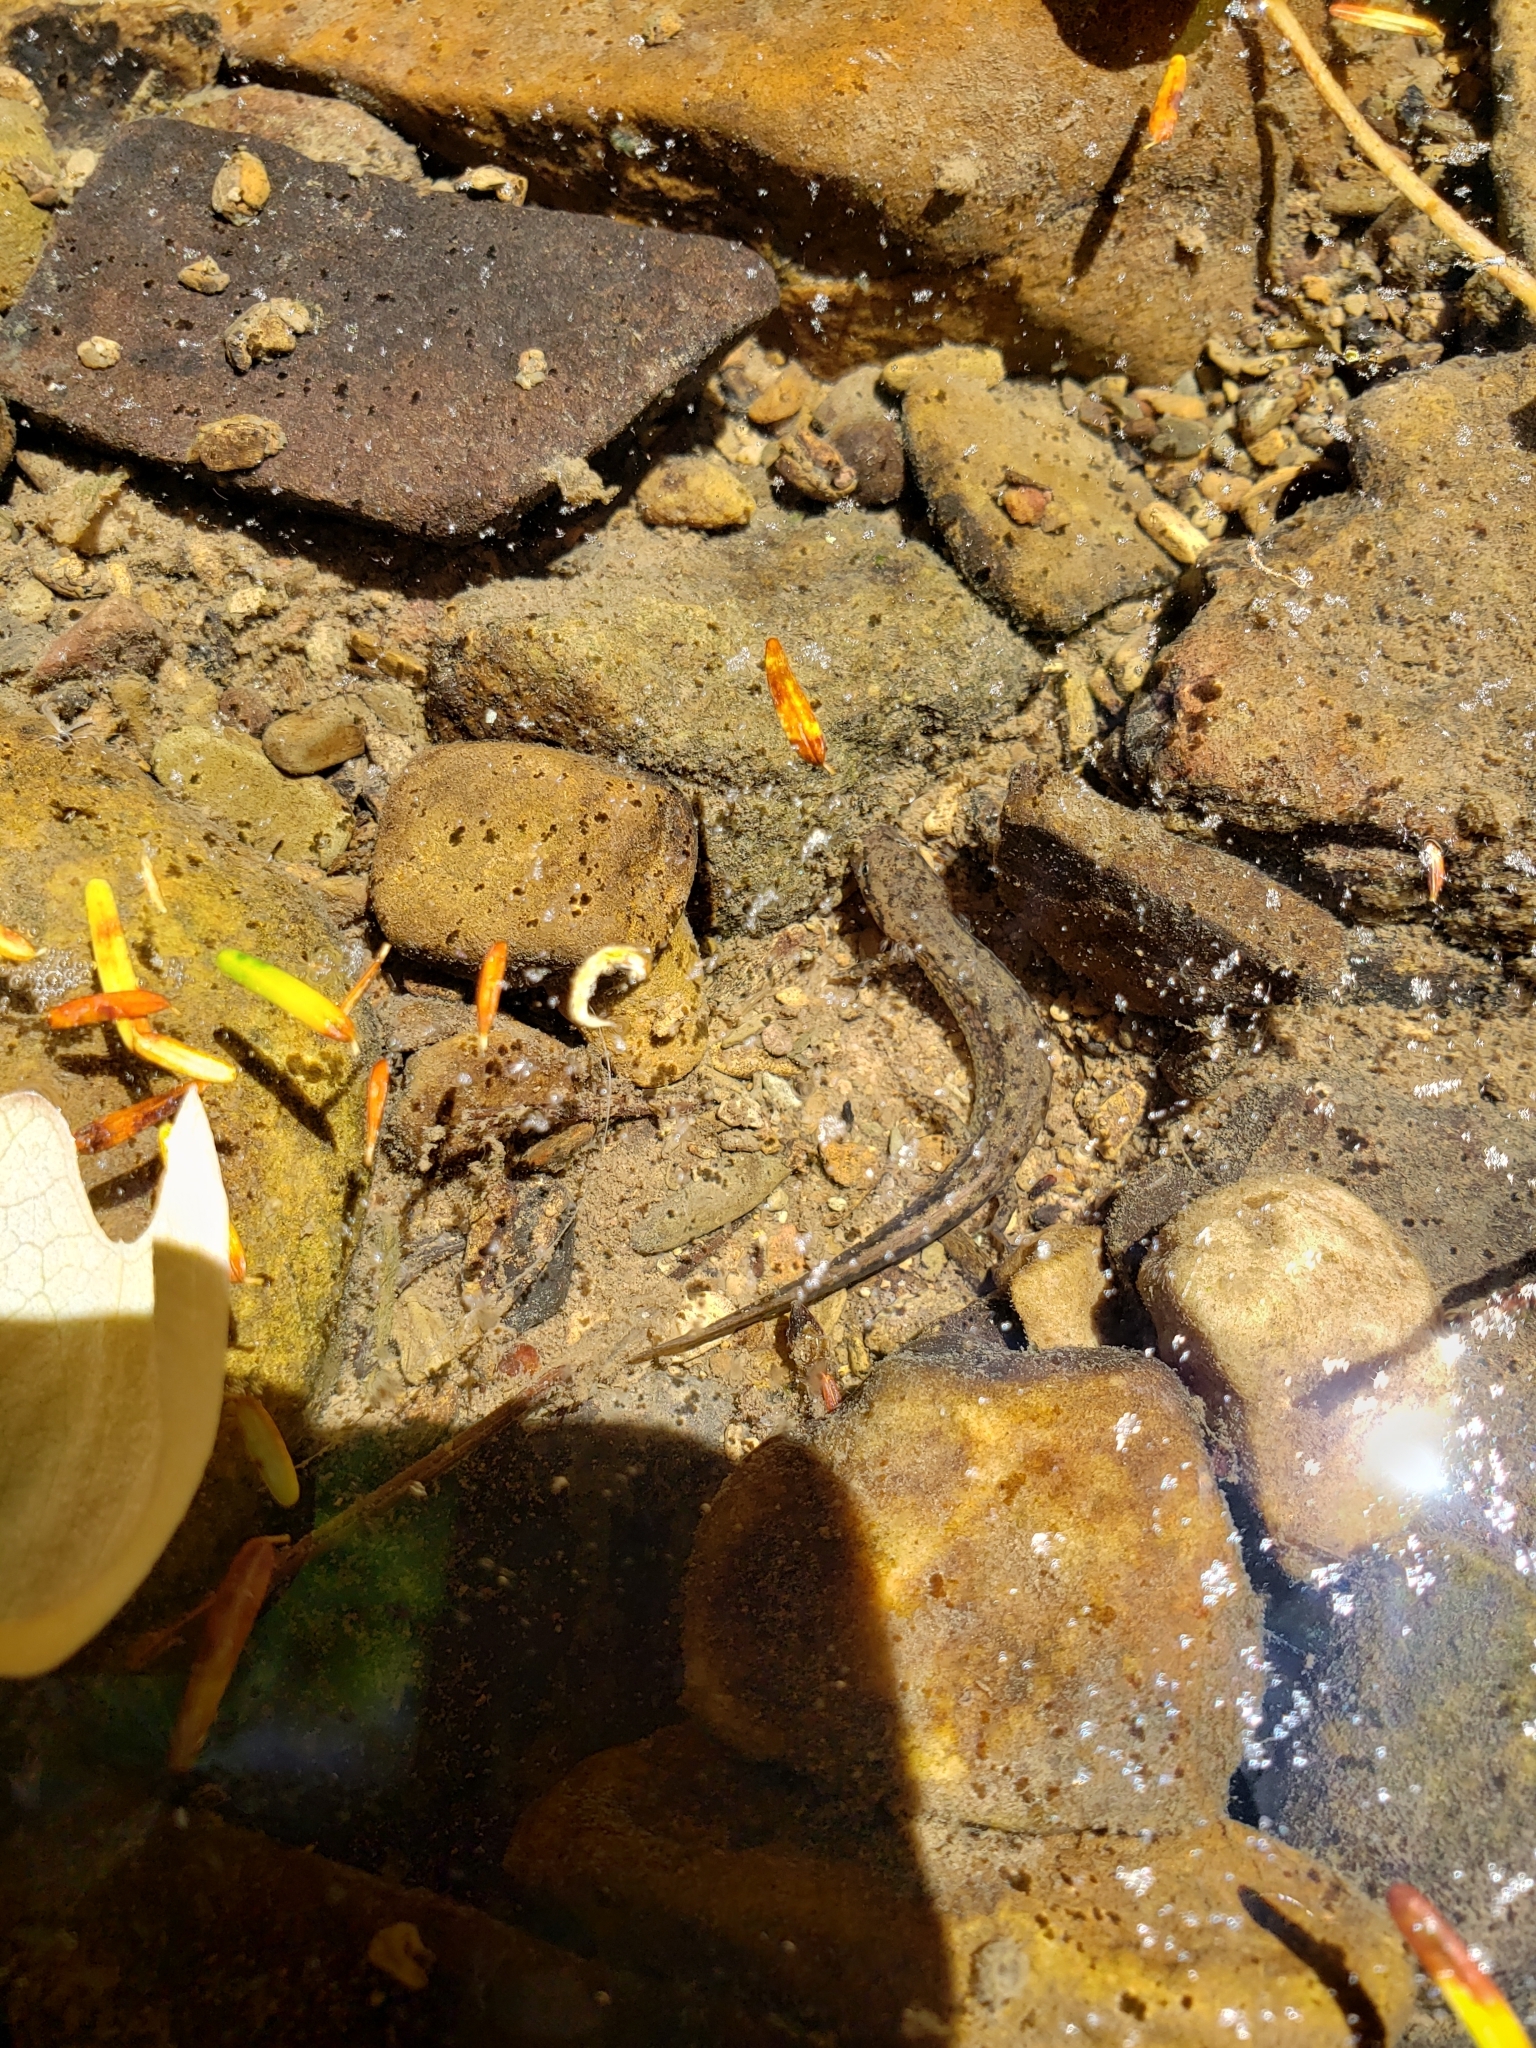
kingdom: Animalia
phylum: Chordata
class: Amphibia
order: Caudata
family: Plethodontidae
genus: Eurycea
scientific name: Eurycea bislineata
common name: Northern two-lined salamander
